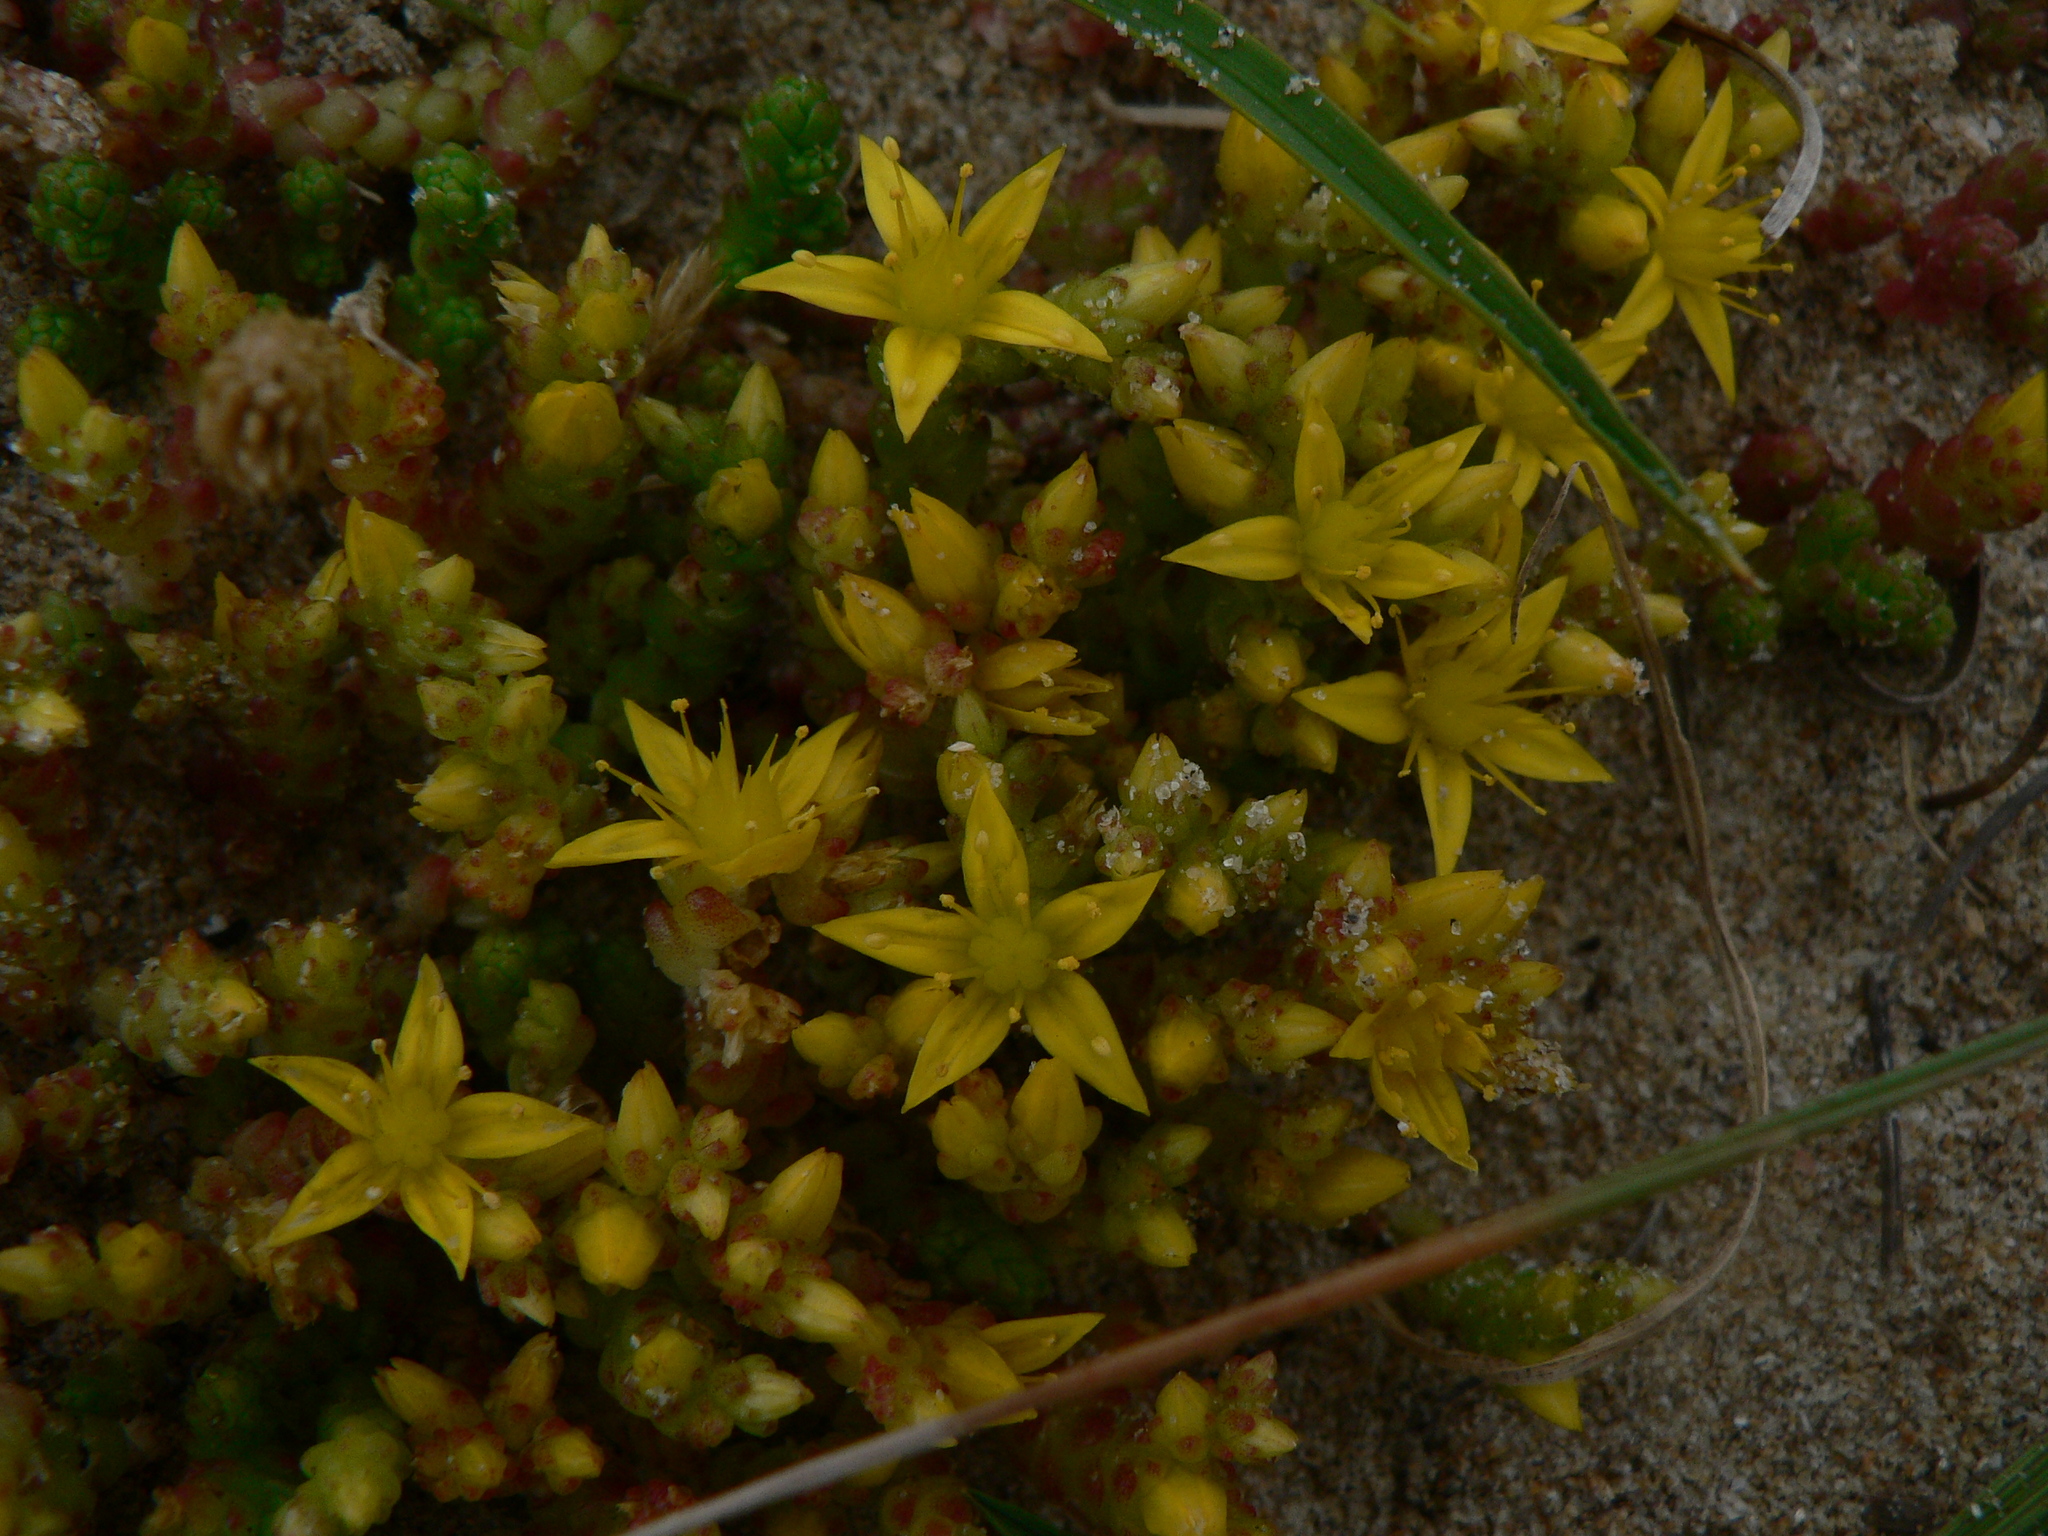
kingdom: Plantae
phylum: Tracheophyta
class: Magnoliopsida
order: Saxifragales
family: Crassulaceae
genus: Sedum
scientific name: Sedum acre
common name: Biting stonecrop
